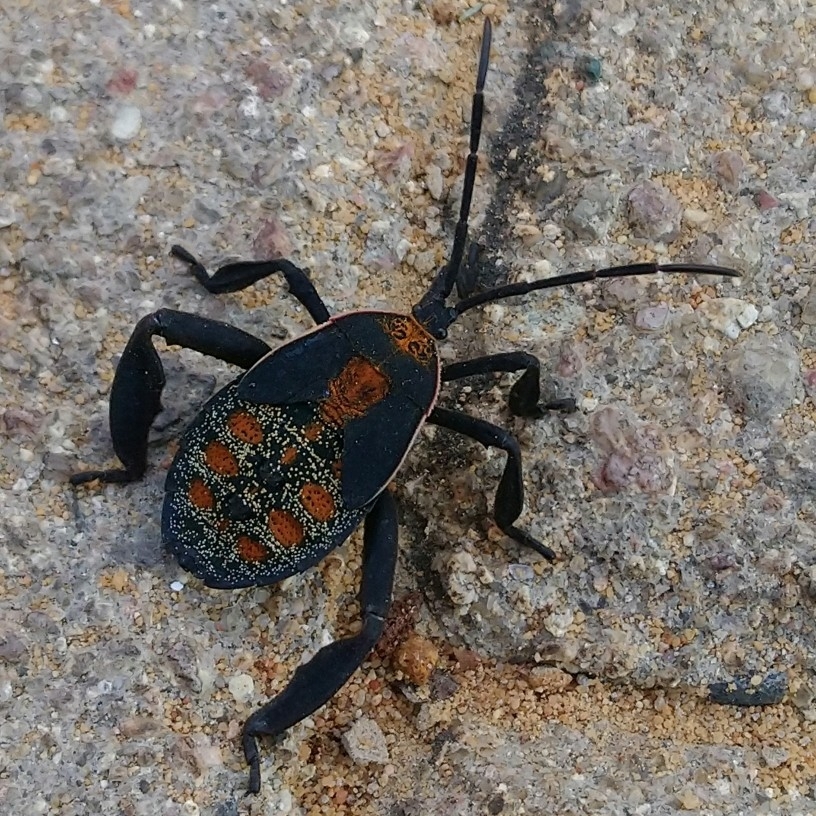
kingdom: Animalia
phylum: Arthropoda
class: Insecta
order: Hemiptera
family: Coreidae
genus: Petascelis
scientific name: Petascelis remipes
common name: Giant twig wilter
